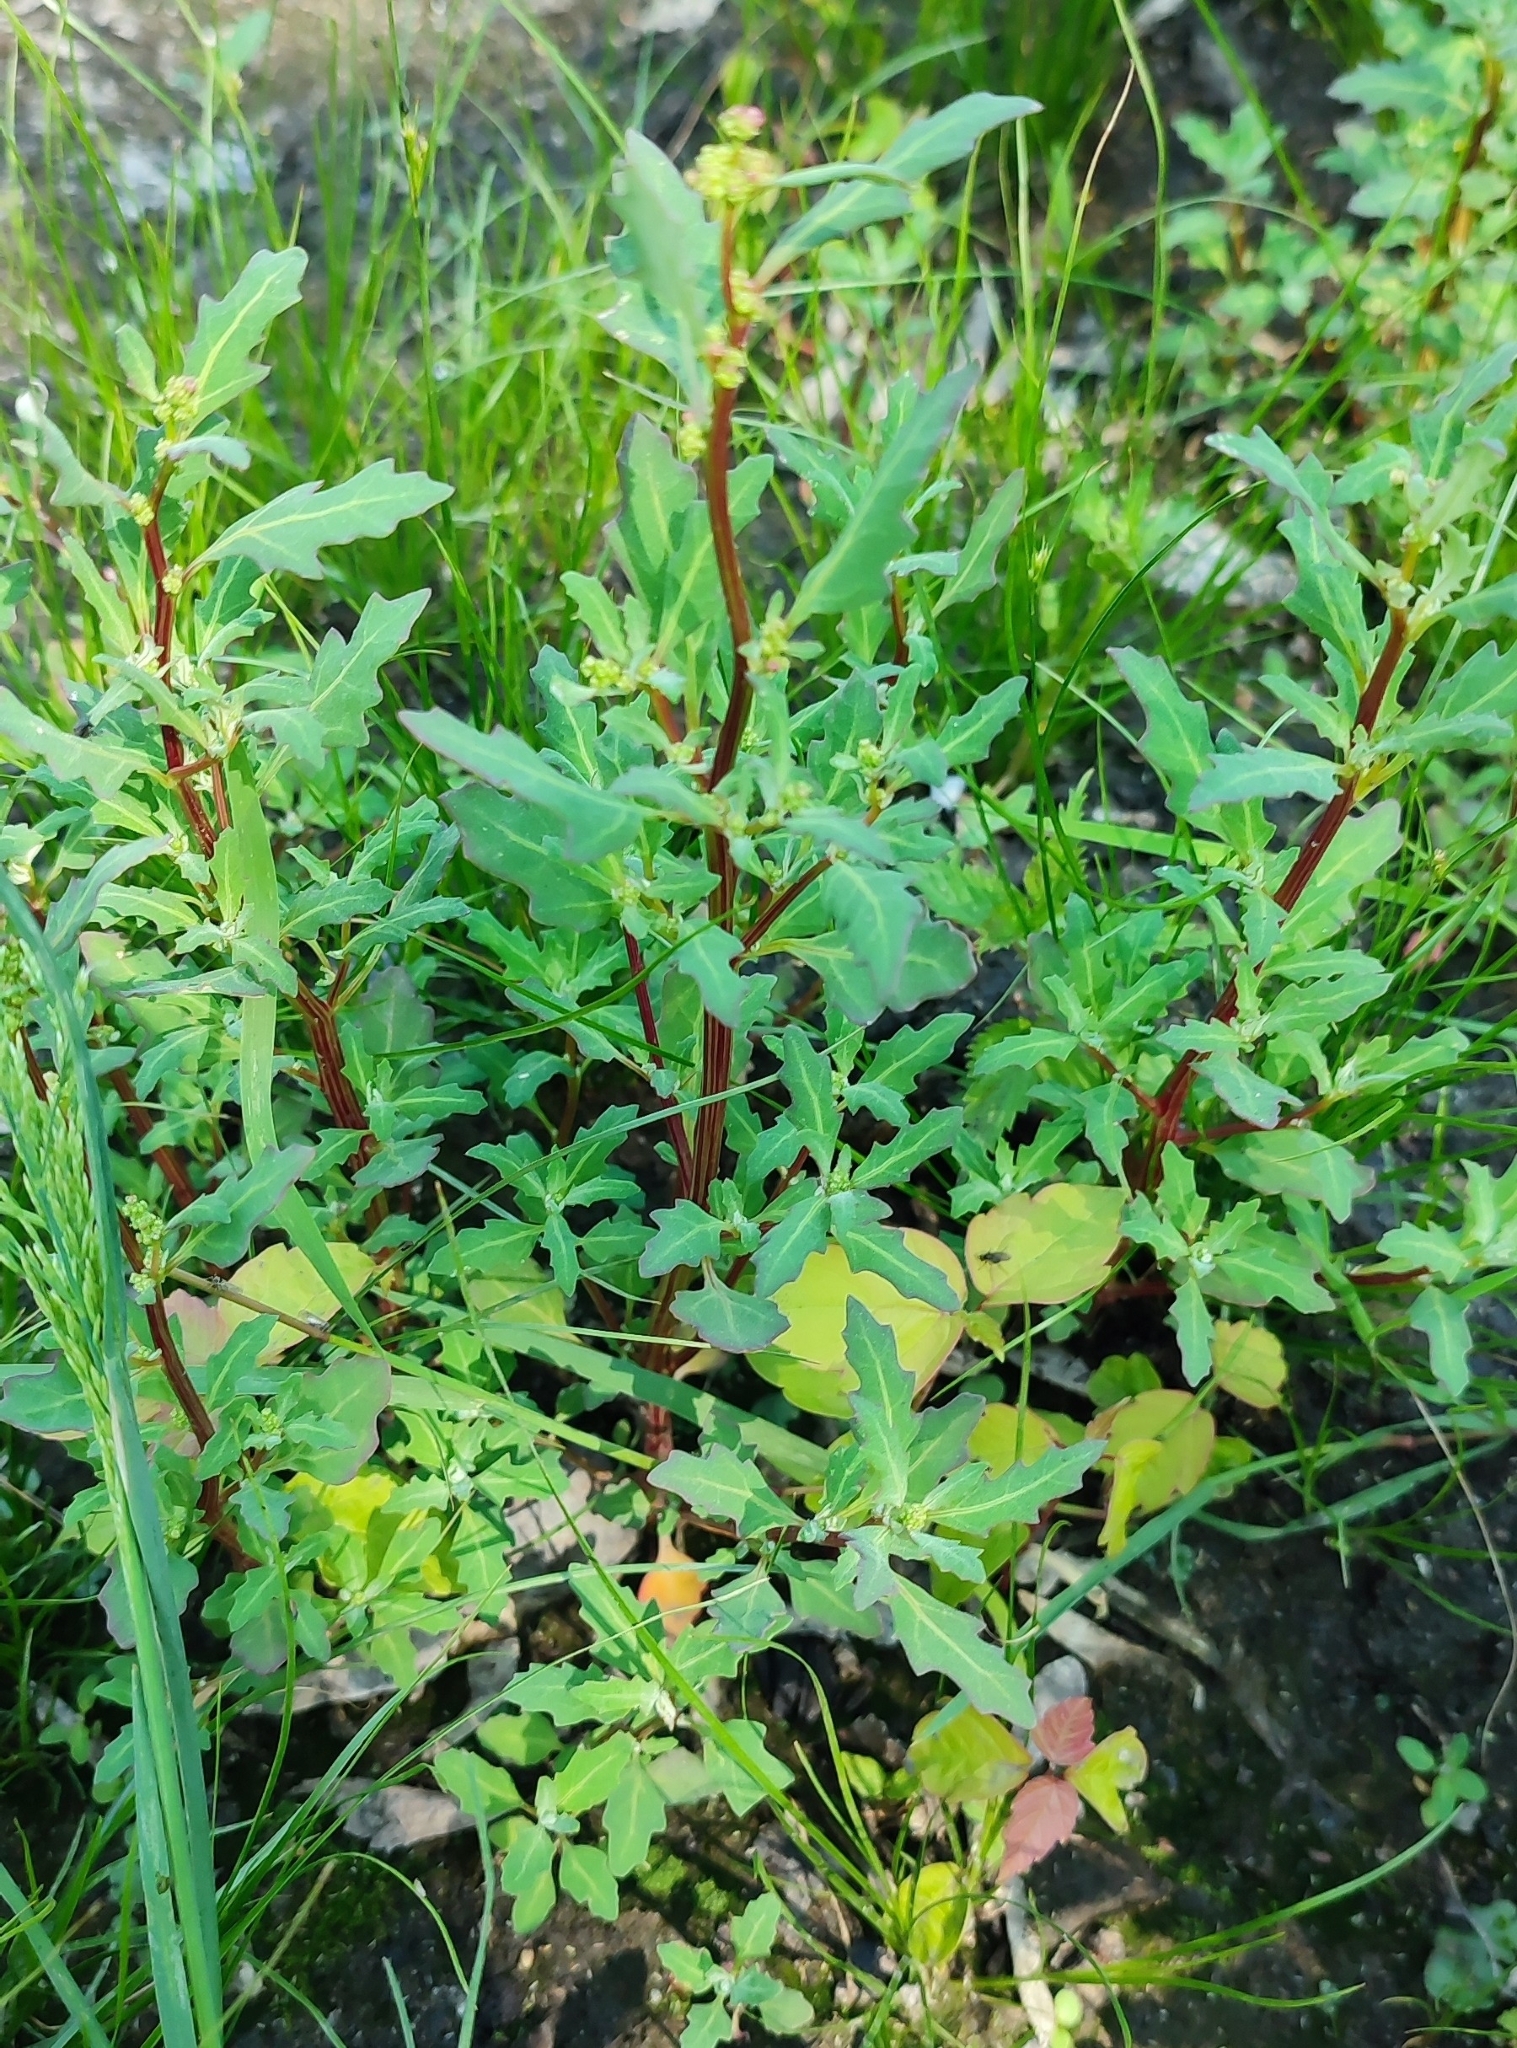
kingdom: Plantae
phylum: Tracheophyta
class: Magnoliopsida
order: Caryophyllales
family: Amaranthaceae
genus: Oxybasis
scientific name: Oxybasis glauca
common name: Glaucous goosefoot
